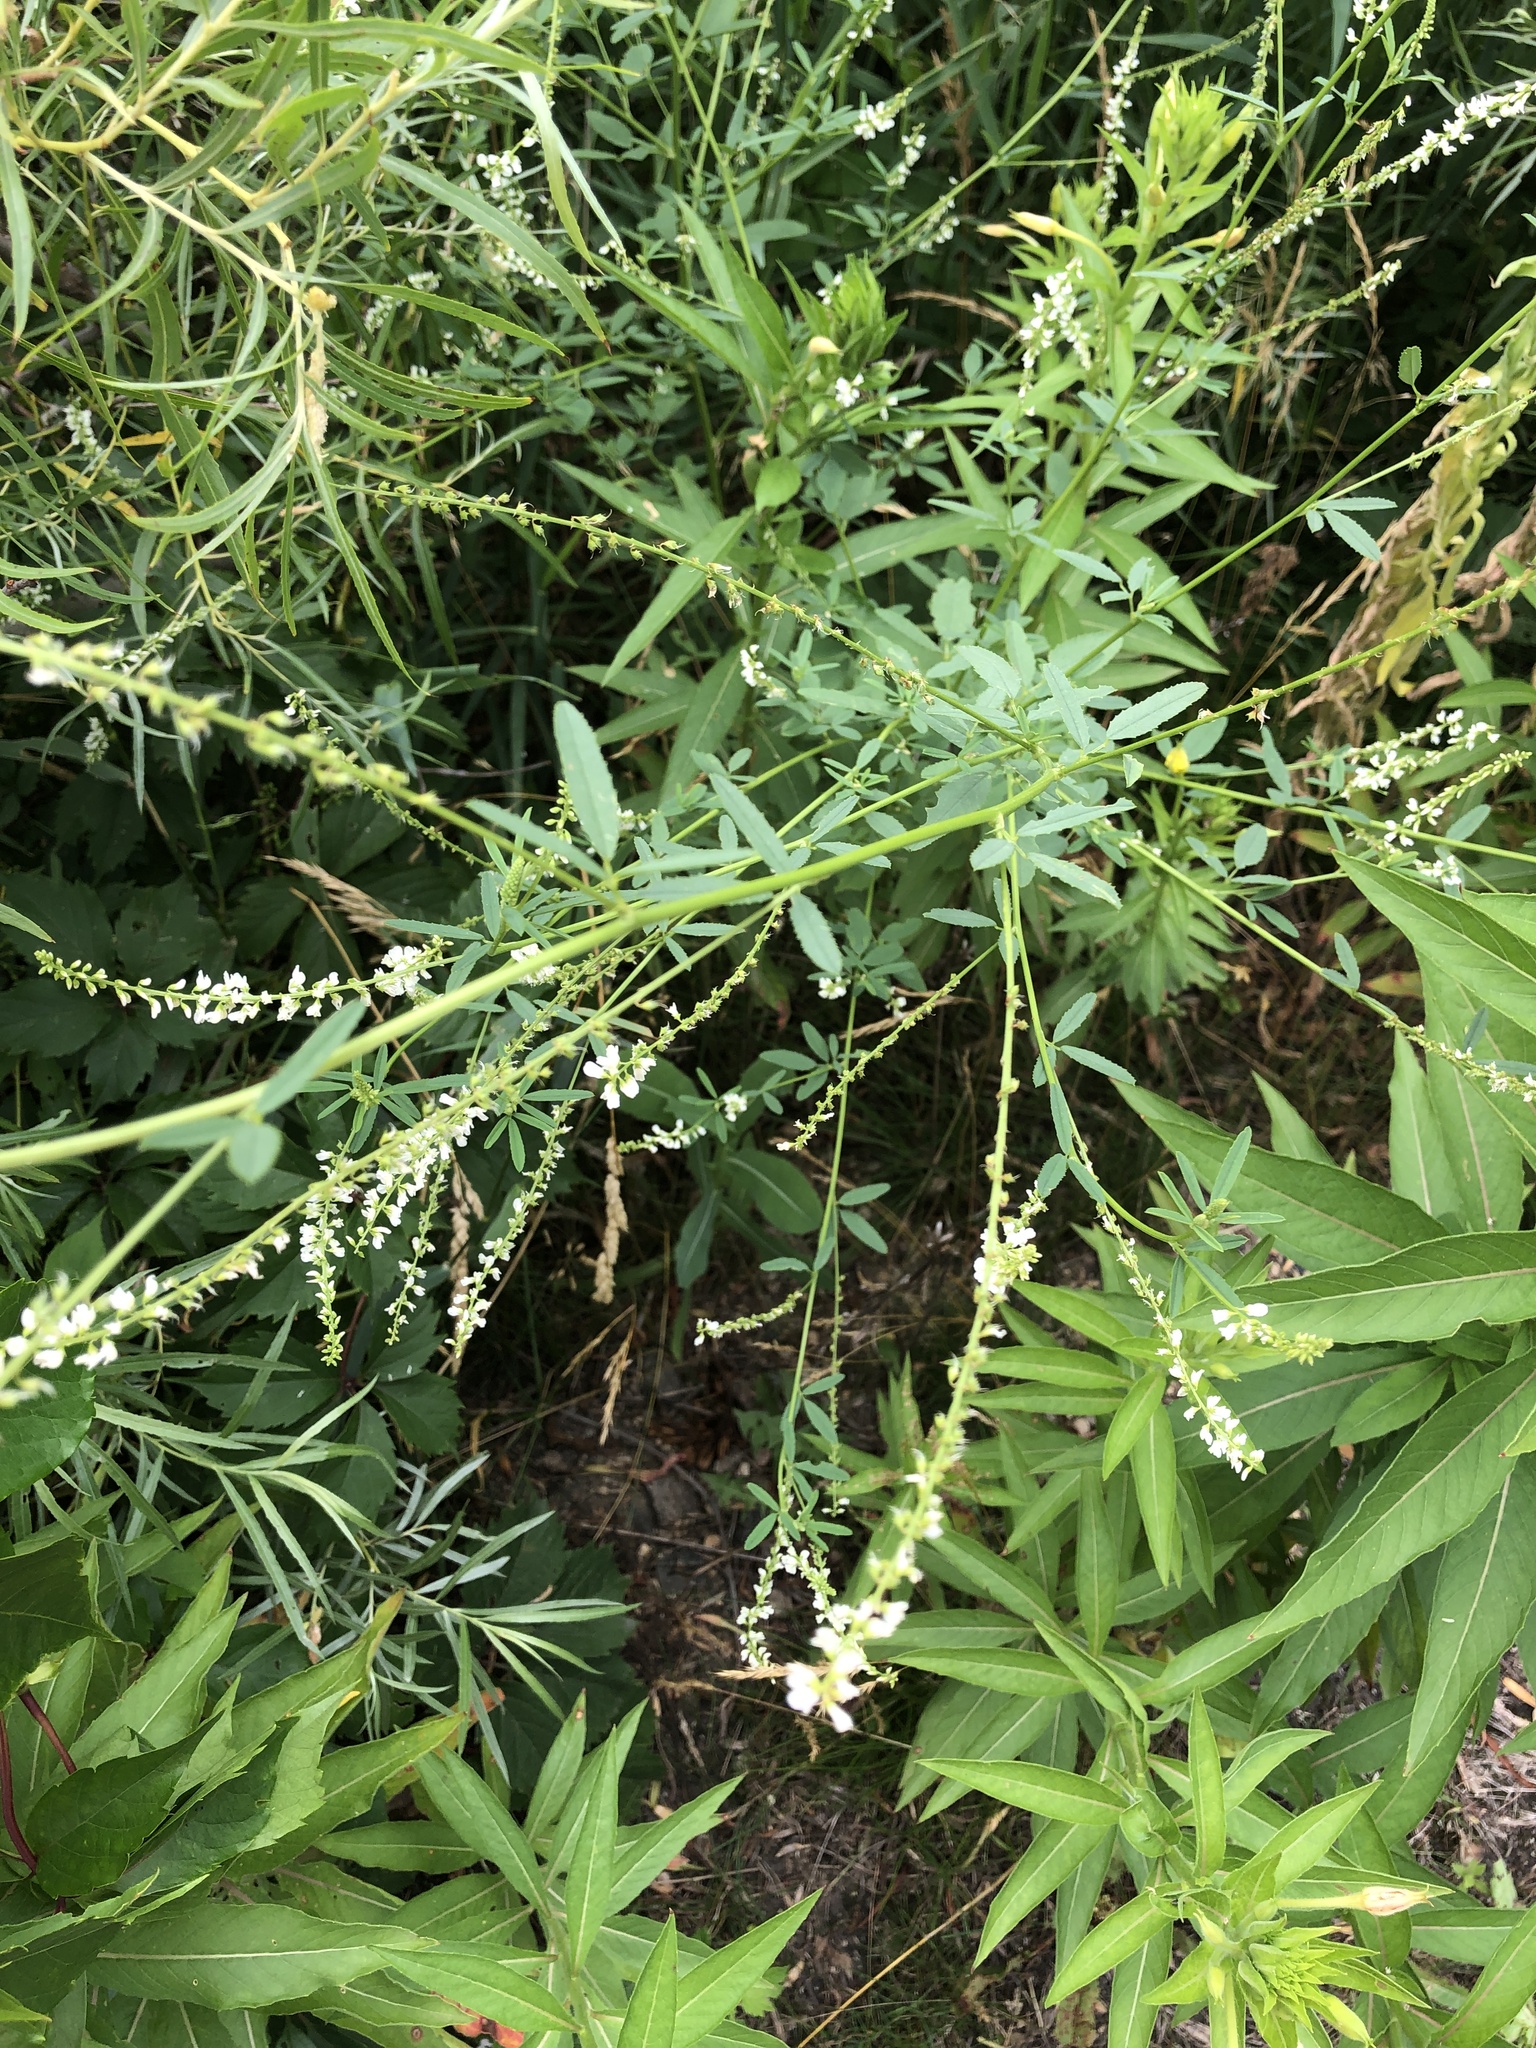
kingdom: Plantae
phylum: Tracheophyta
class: Magnoliopsida
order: Fabales
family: Fabaceae
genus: Melilotus
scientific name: Melilotus albus
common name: White melilot
